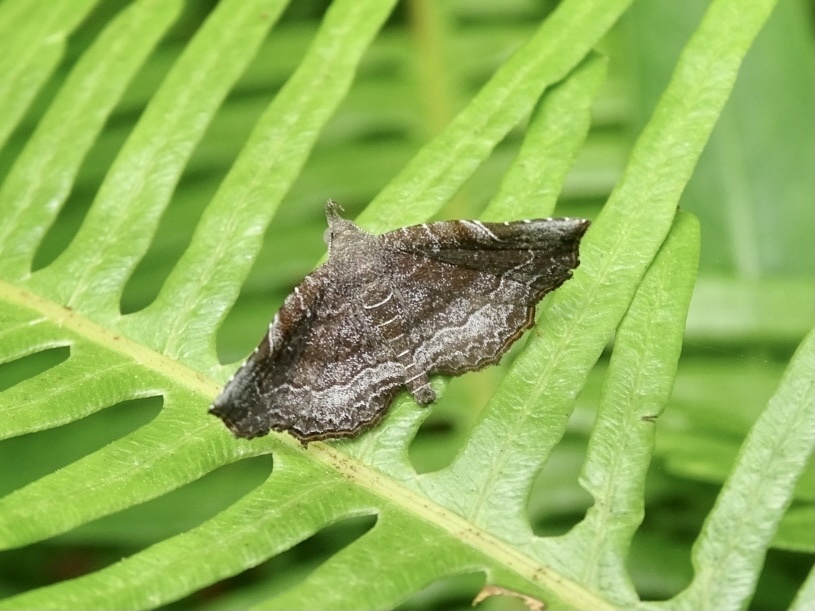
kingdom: Animalia
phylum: Arthropoda
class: Insecta
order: Lepidoptera
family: Erebidae
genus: Nagadeba
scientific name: Nagadeba indecoralis
